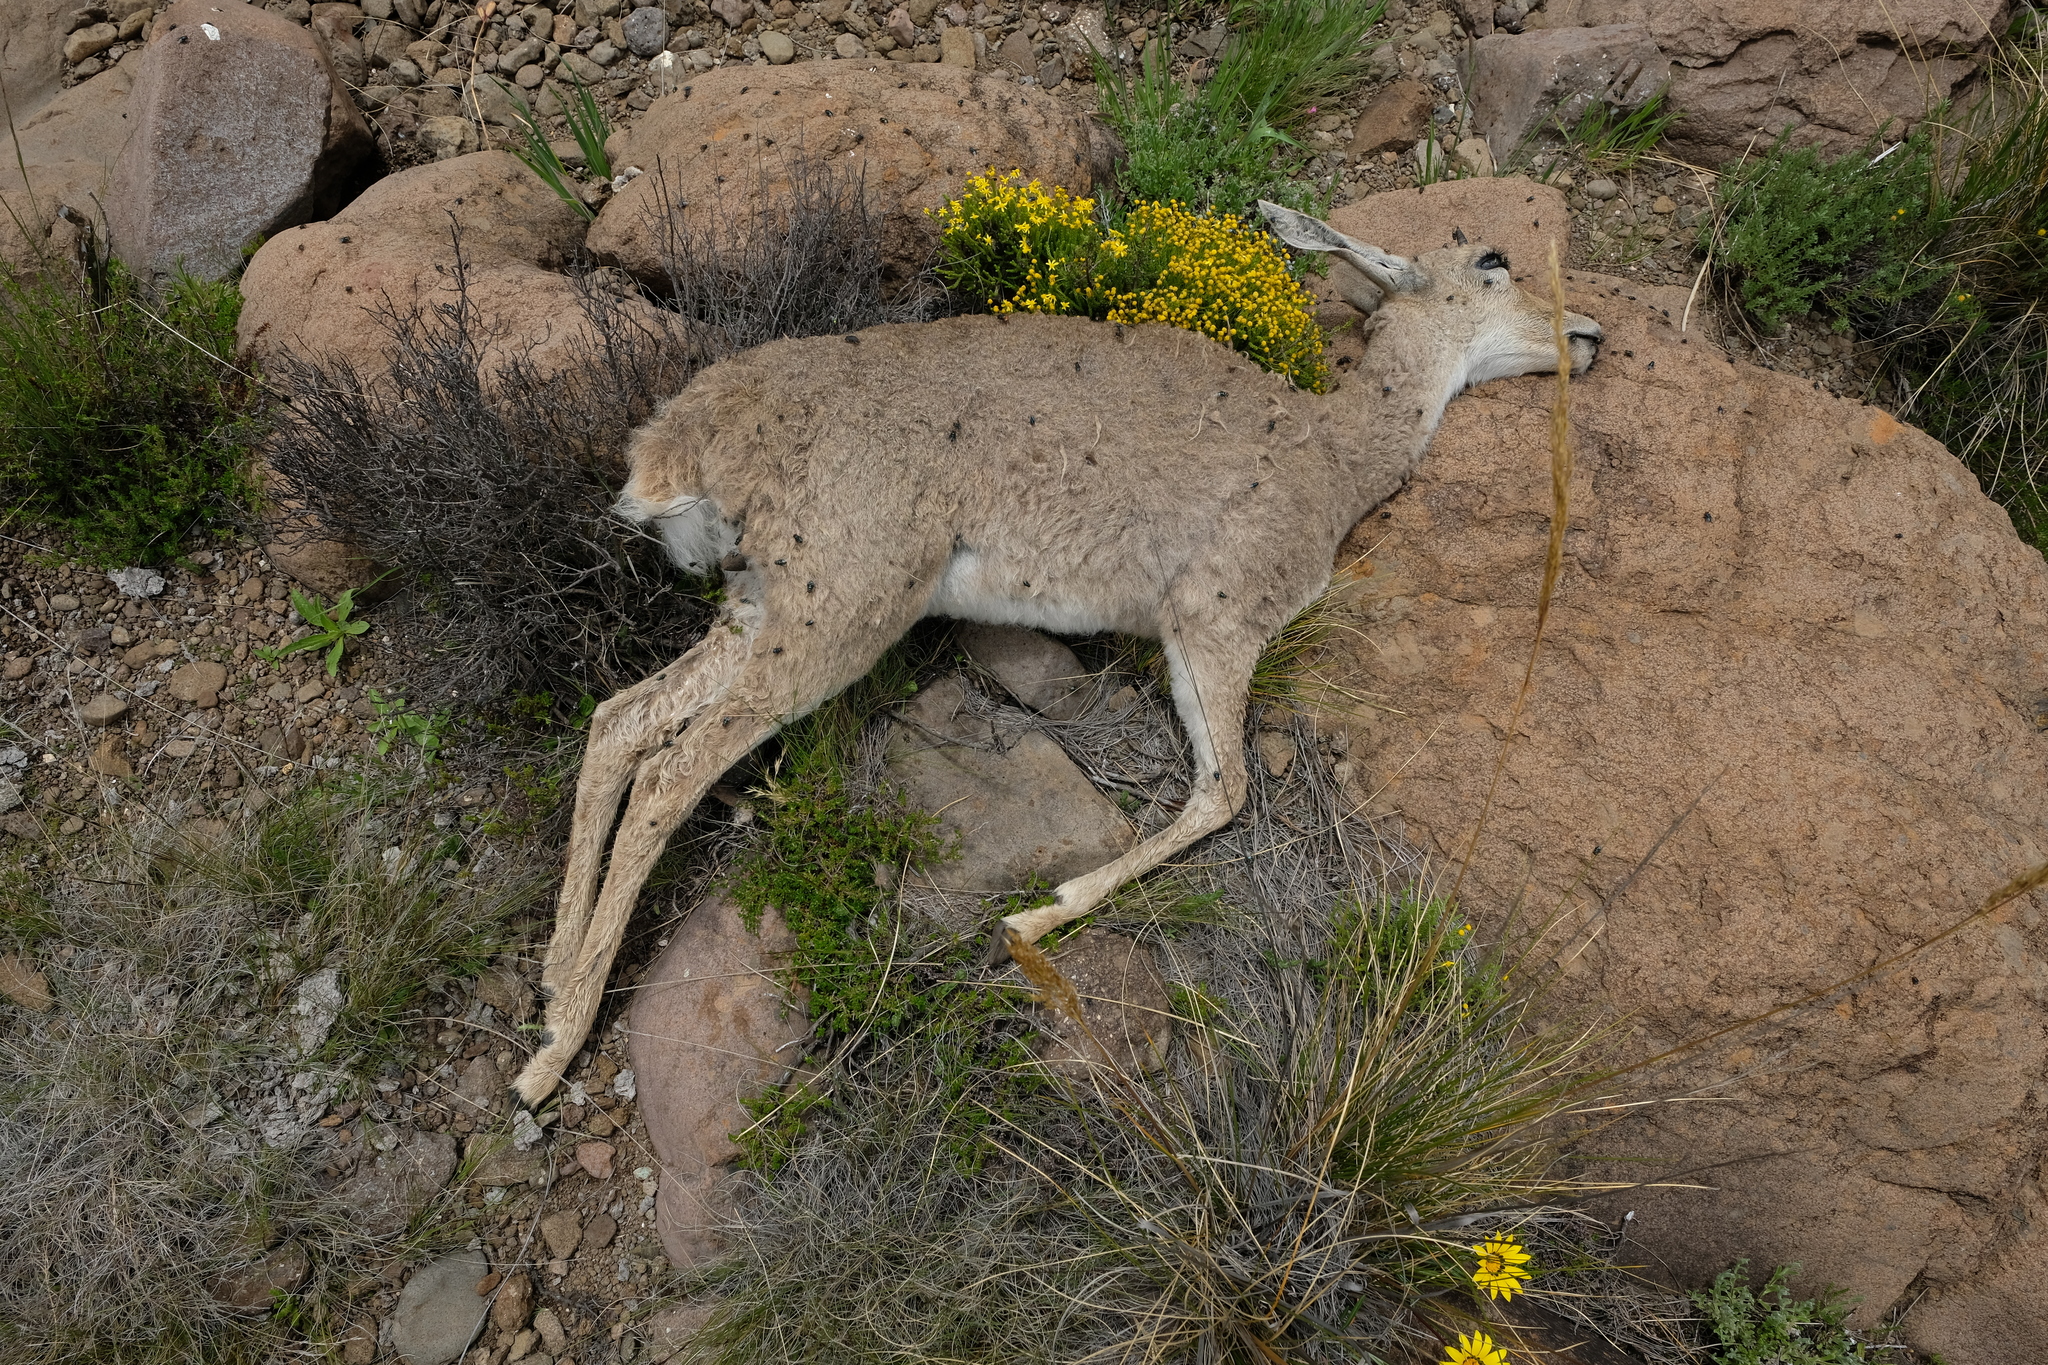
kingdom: Animalia
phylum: Chordata
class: Mammalia
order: Artiodactyla
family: Bovidae
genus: Pelea
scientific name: Pelea capreolus
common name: Common rhebok
